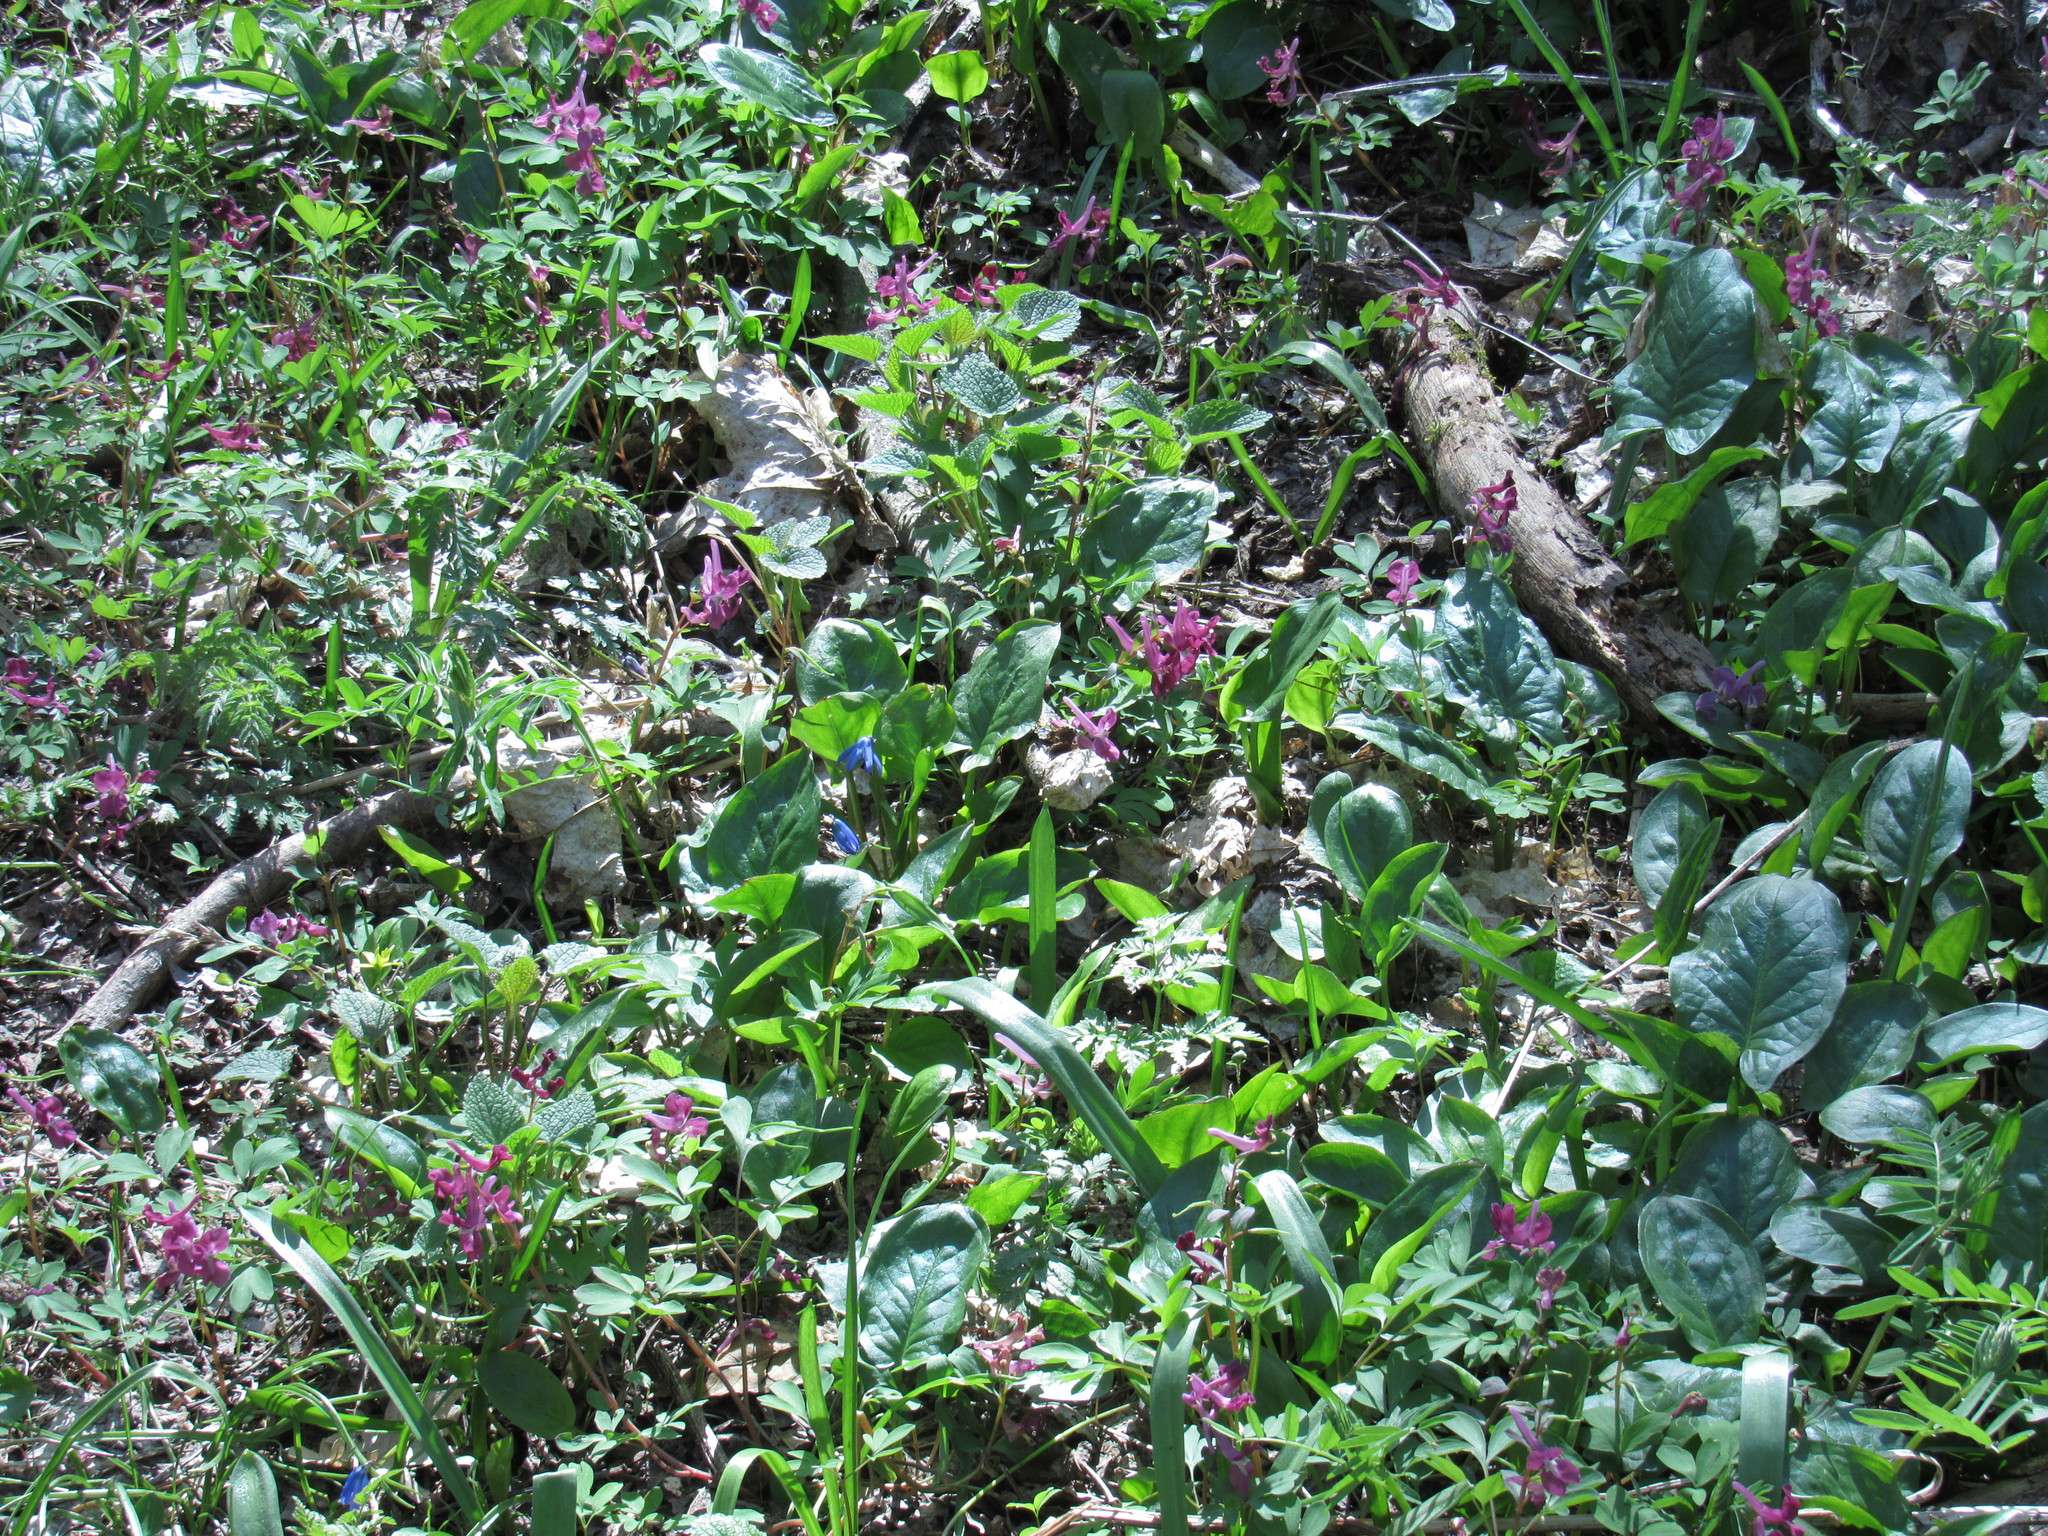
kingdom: Plantae
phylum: Tracheophyta
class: Magnoliopsida
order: Ranunculales
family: Papaveraceae
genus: Corydalis
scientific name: Corydalis caucasica
